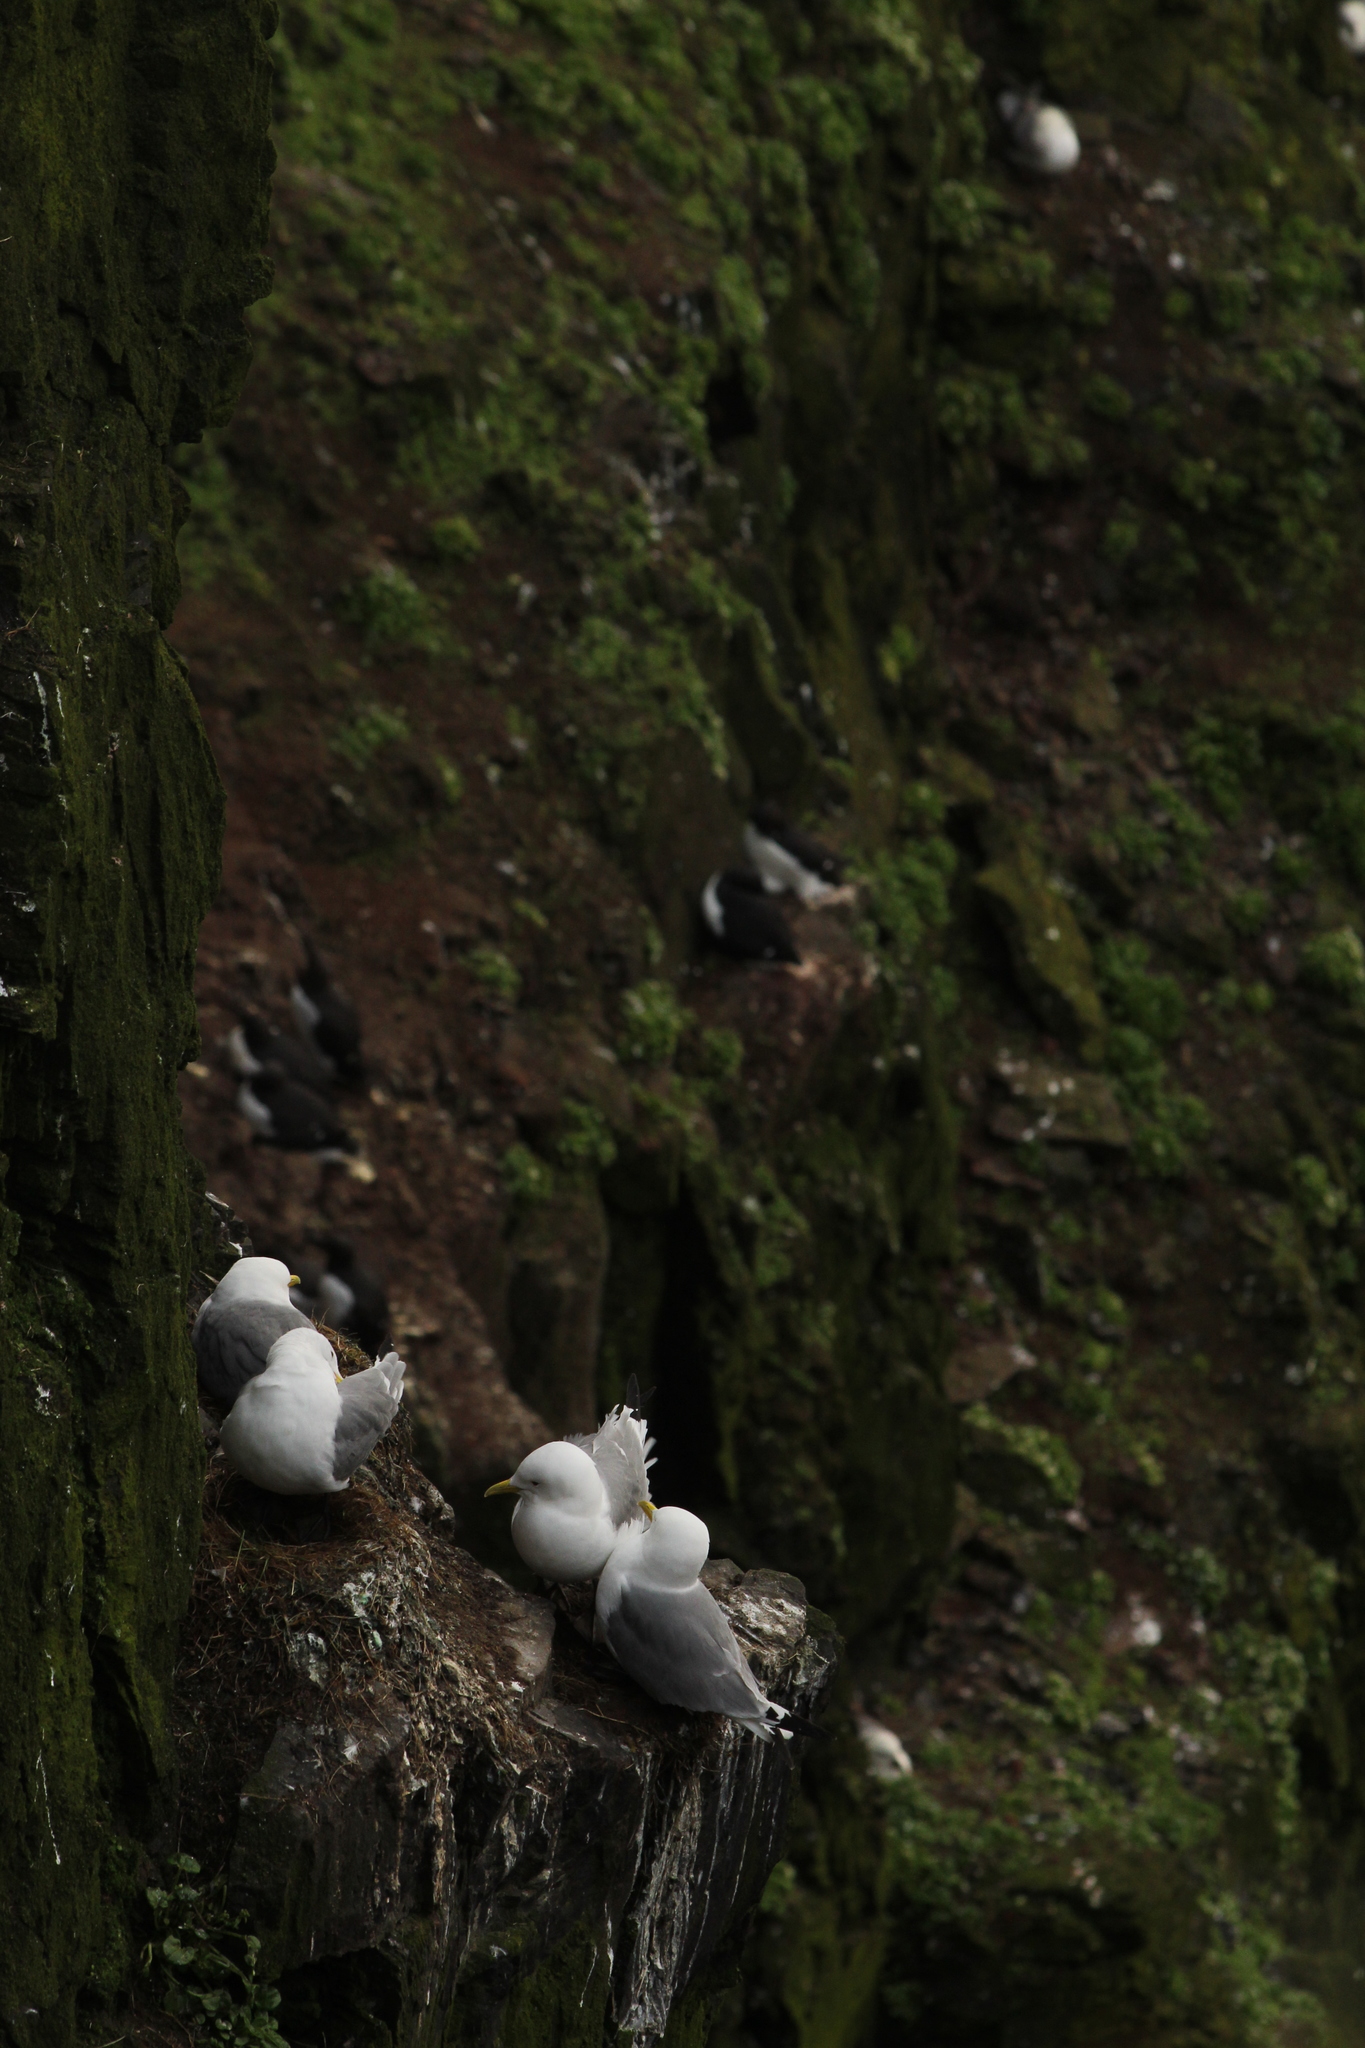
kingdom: Animalia
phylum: Chordata
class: Aves
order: Charadriiformes
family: Laridae
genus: Rissa
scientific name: Rissa tridactyla
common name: Black-legged kittiwake
